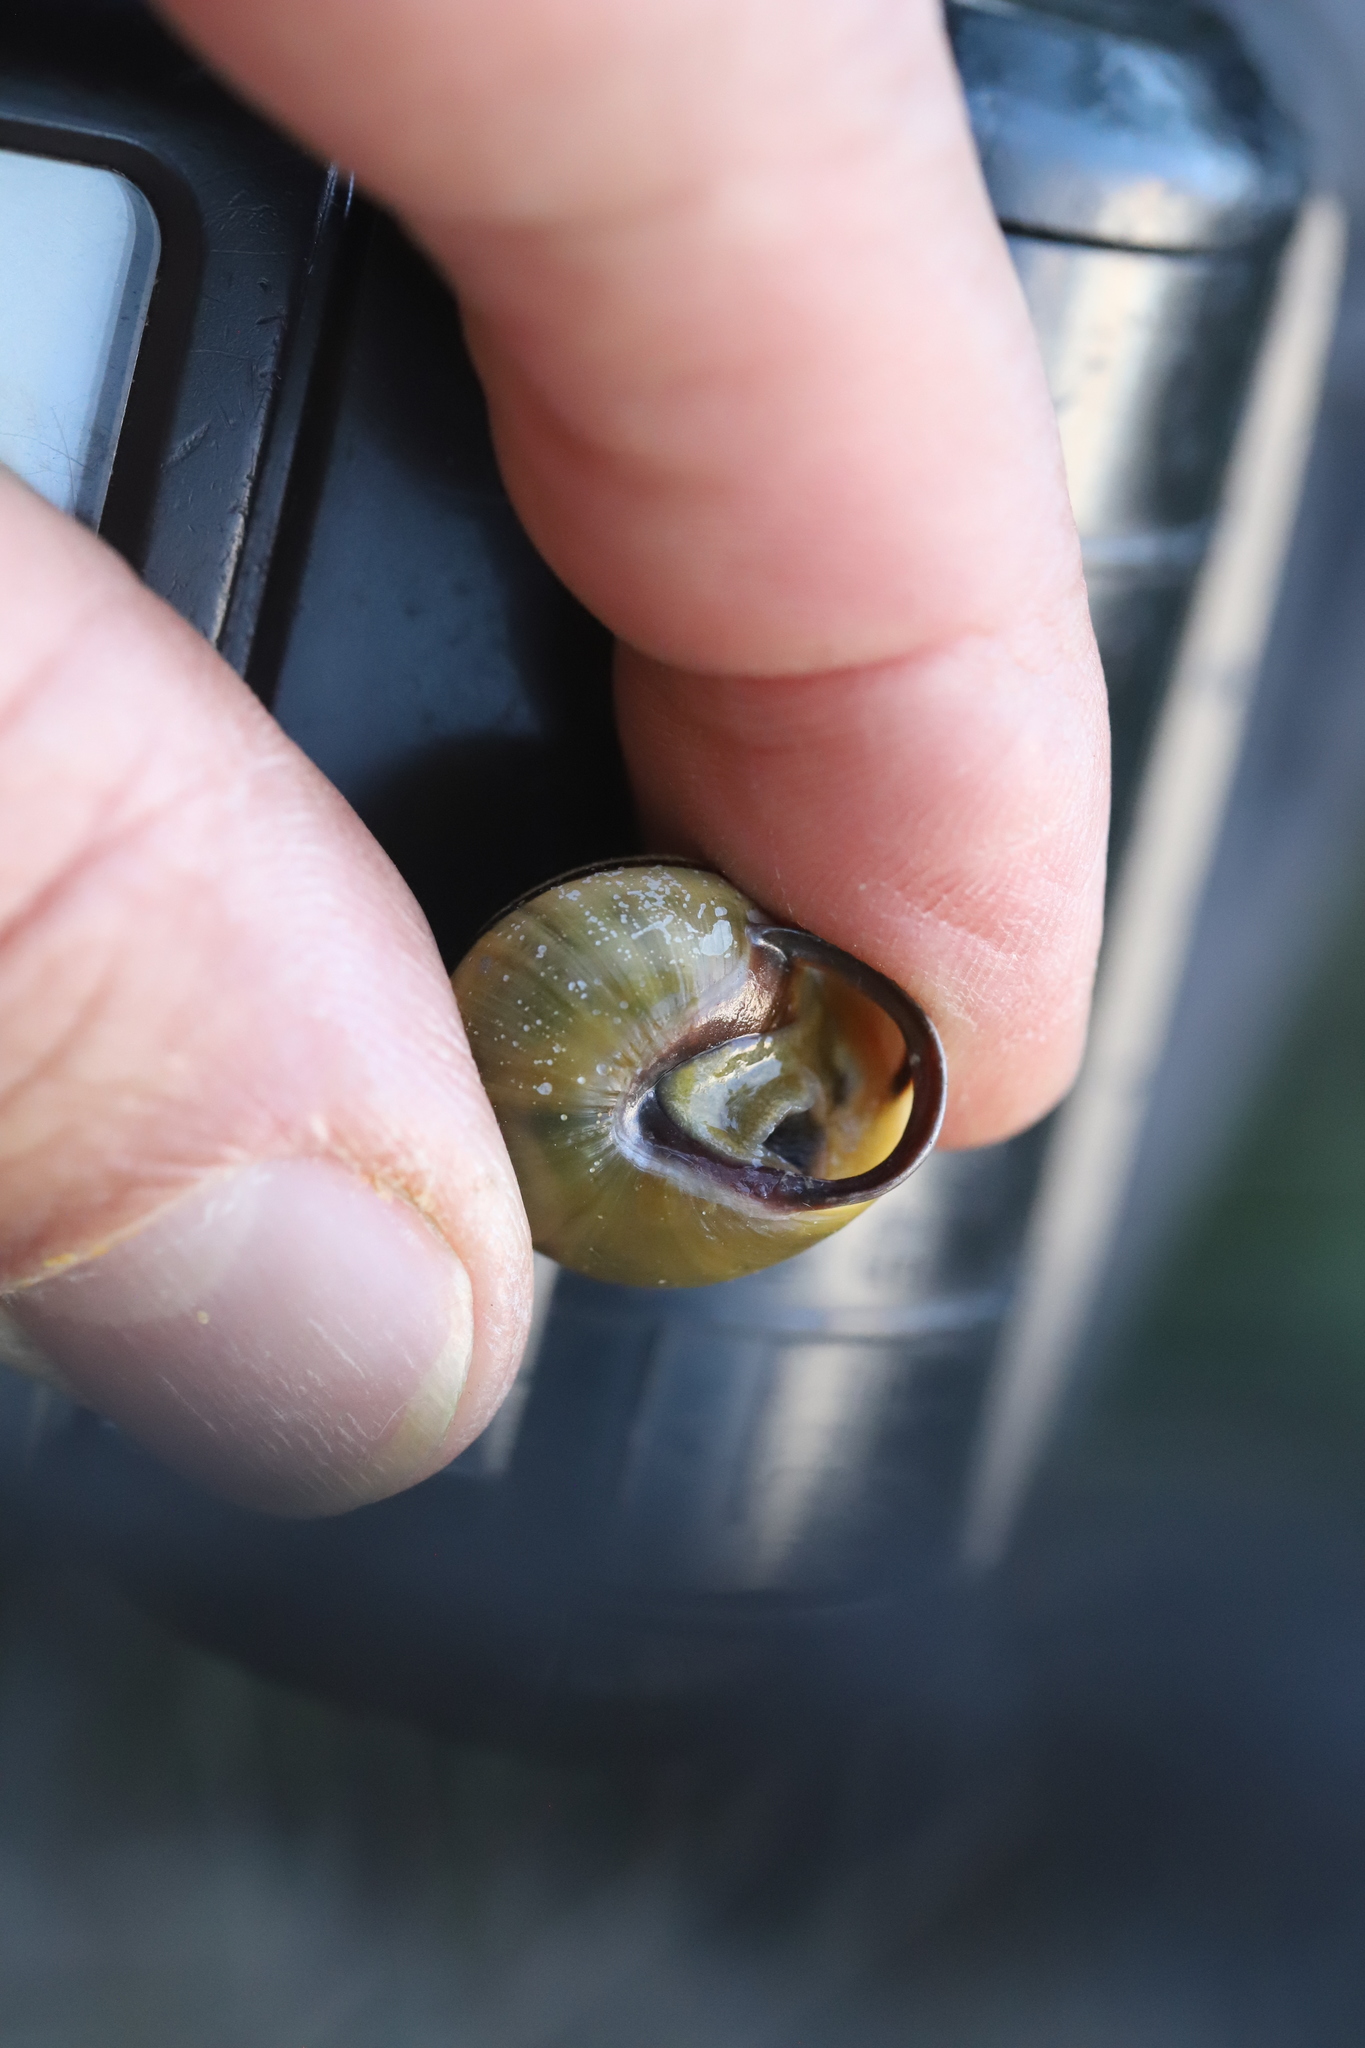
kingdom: Animalia
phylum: Mollusca
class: Gastropoda
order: Stylommatophora
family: Helicidae
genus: Cepaea
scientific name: Cepaea nemoralis
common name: Grovesnail
